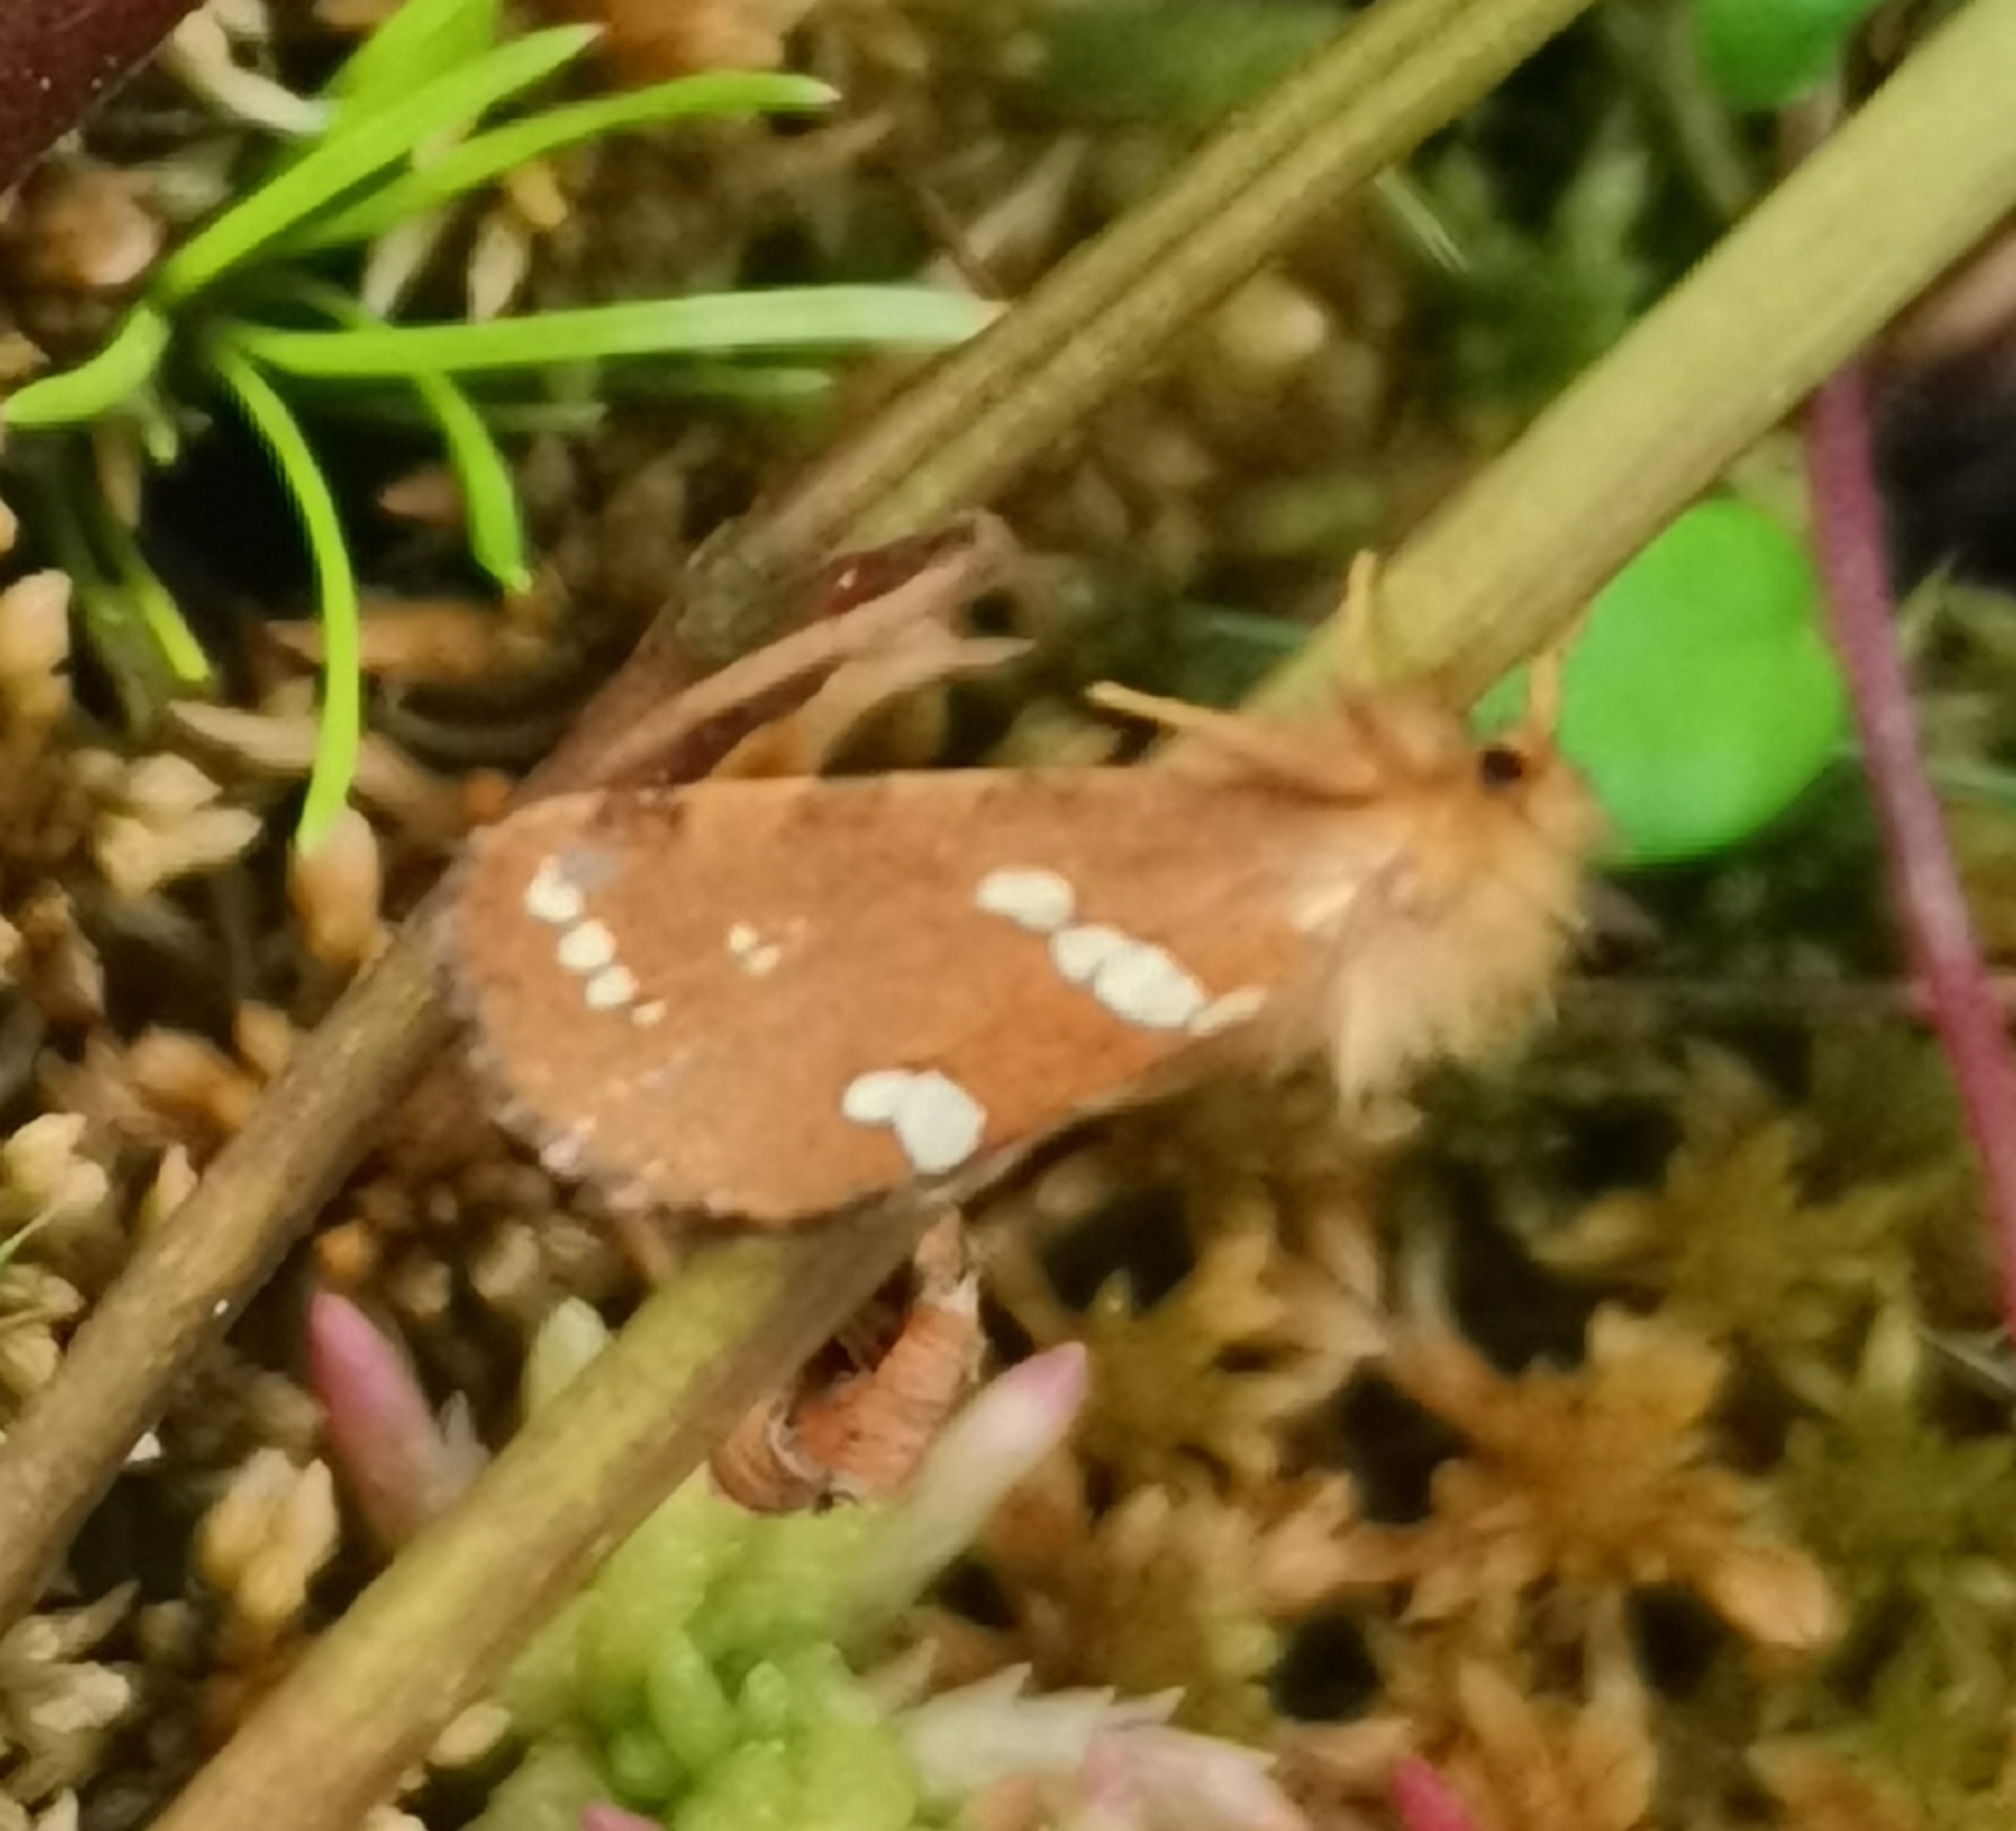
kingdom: Animalia
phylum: Arthropoda
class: Insecta
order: Lepidoptera
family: Hepialidae
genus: Phymatopus
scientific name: Phymatopus hecta
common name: Gold swift
